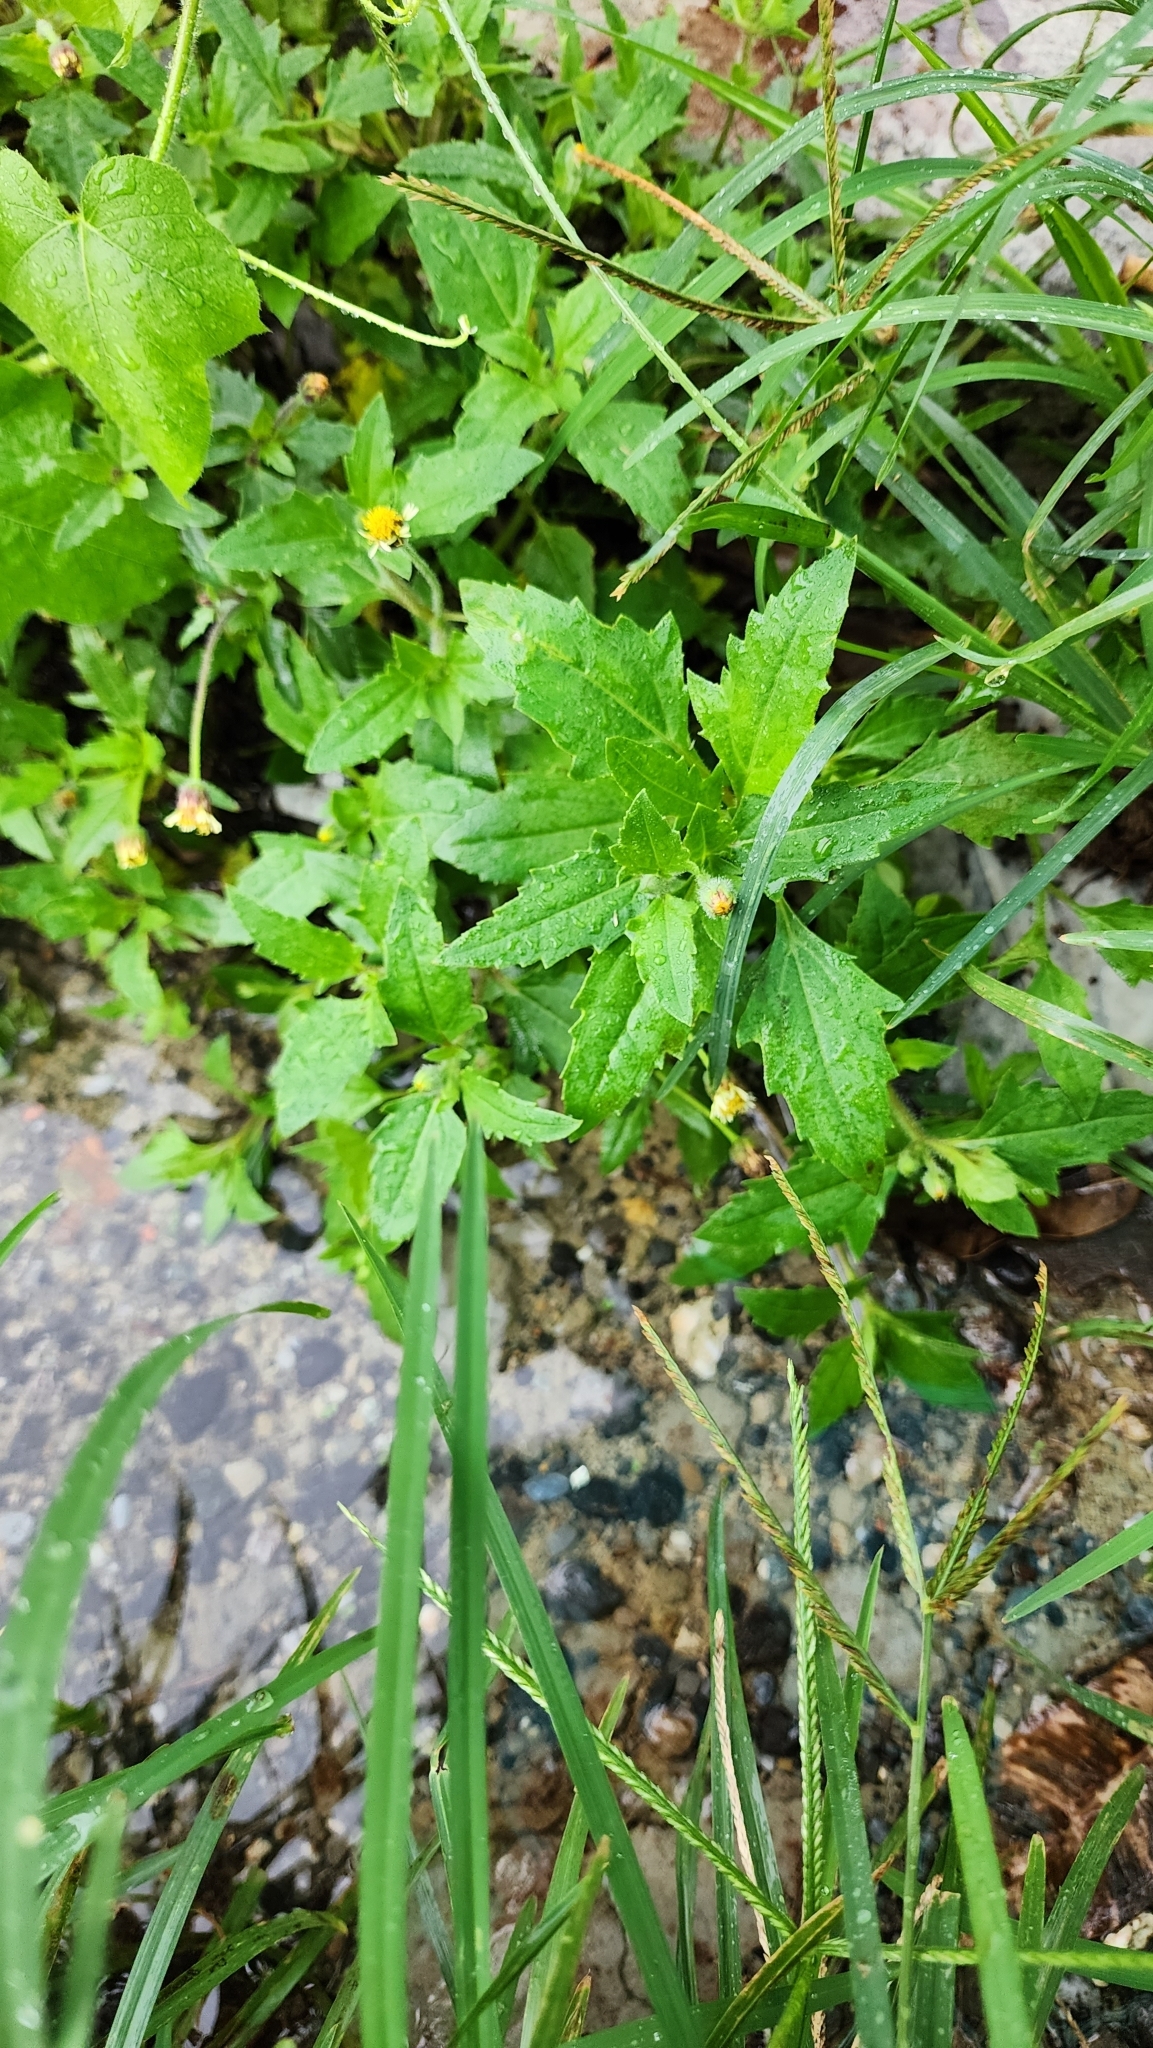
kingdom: Plantae
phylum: Tracheophyta
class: Magnoliopsida
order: Asterales
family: Asteraceae
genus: Tridax
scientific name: Tridax procumbens
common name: Coatbuttons
